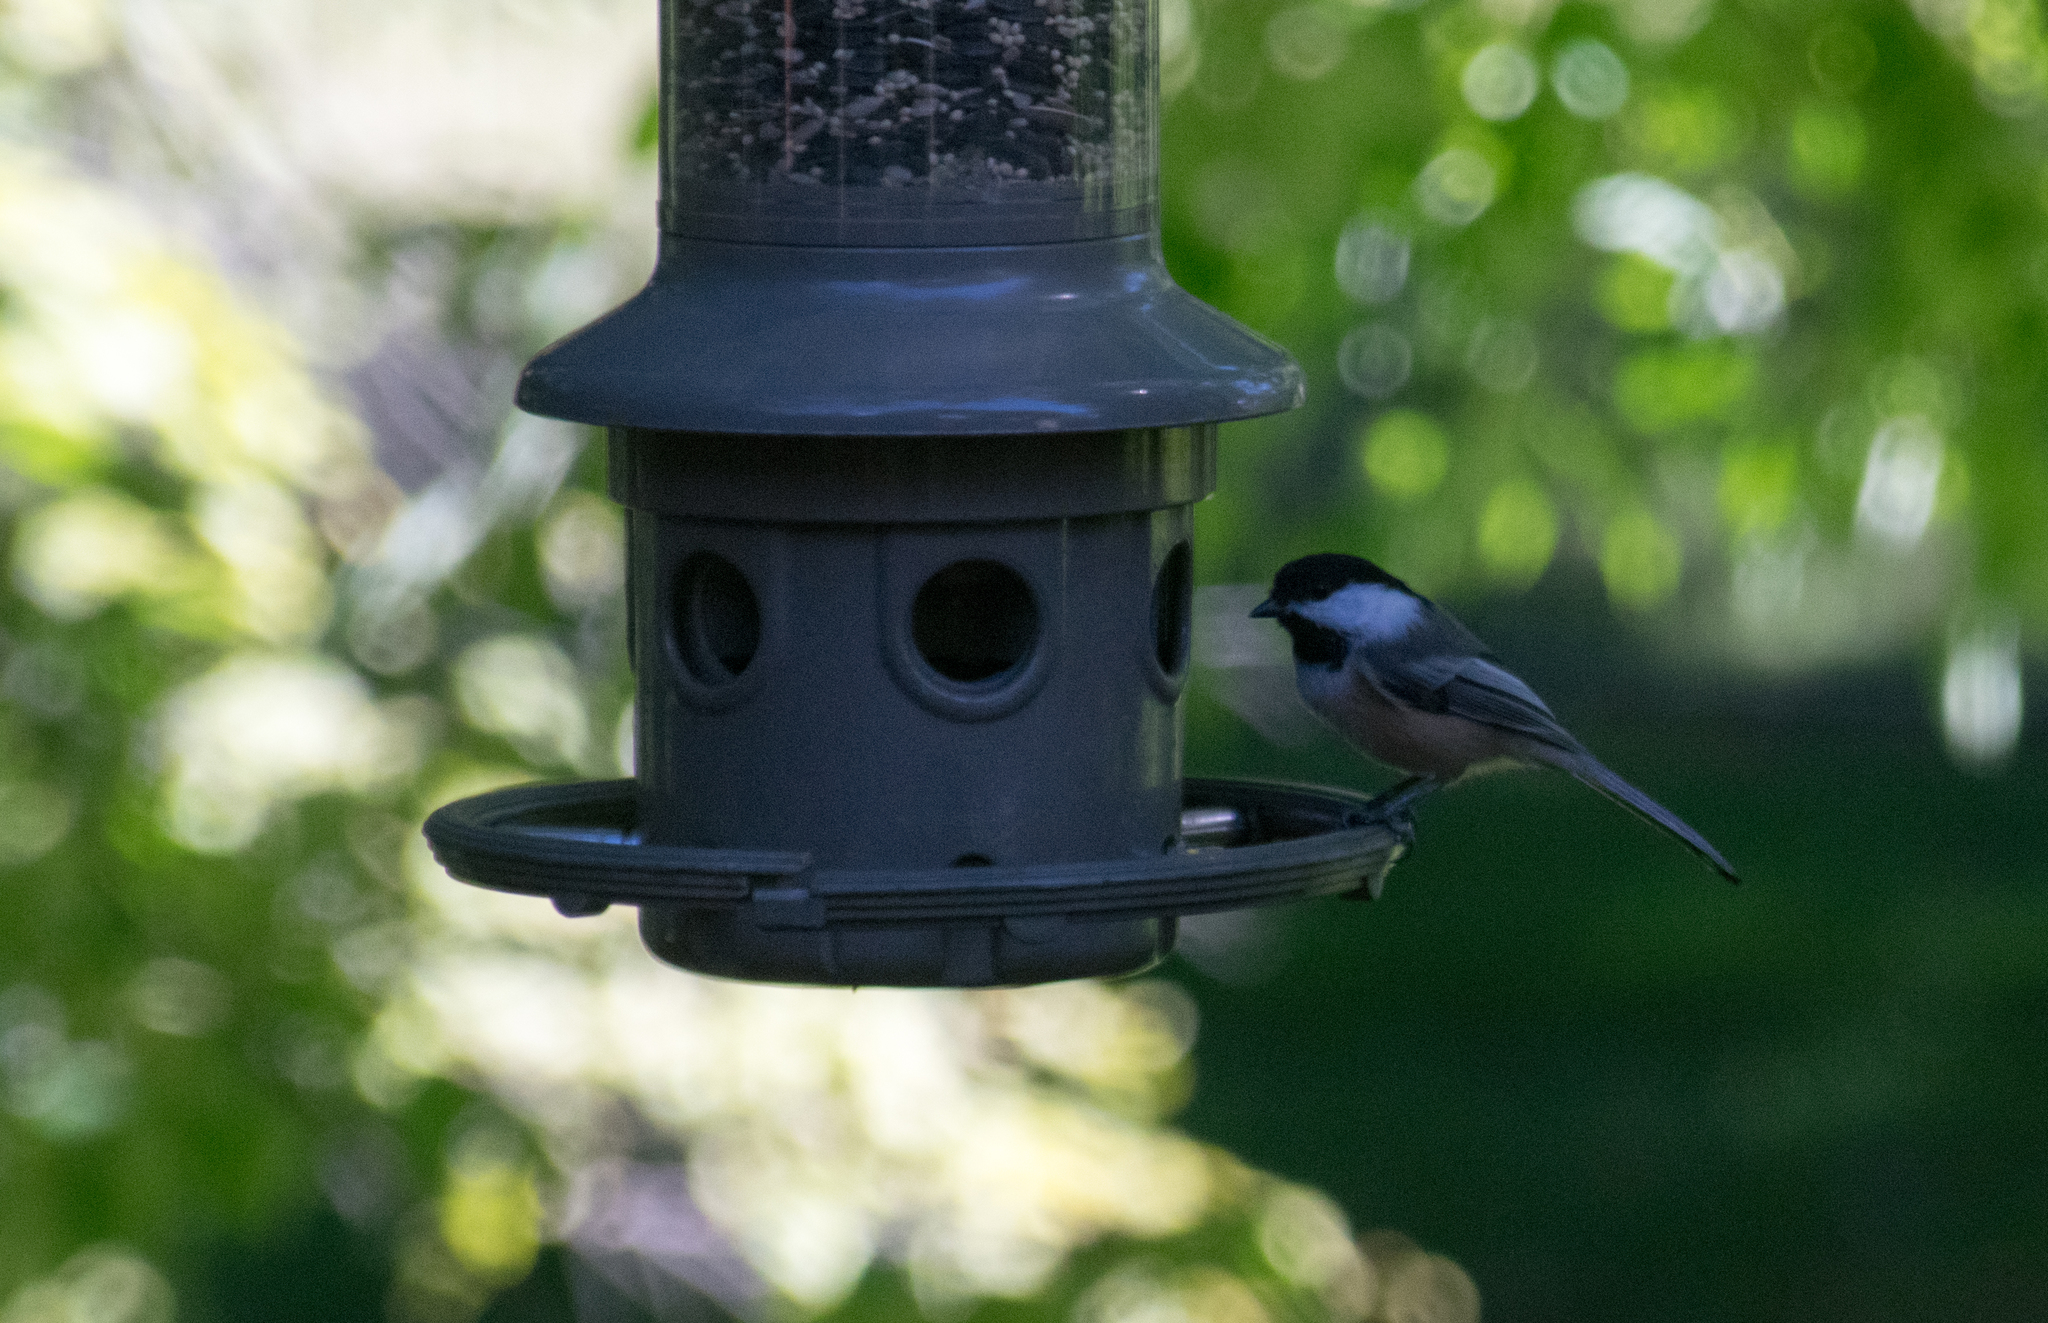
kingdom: Animalia
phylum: Chordata
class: Aves
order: Passeriformes
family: Paridae
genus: Poecile
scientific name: Poecile atricapillus
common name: Black-capped chickadee
